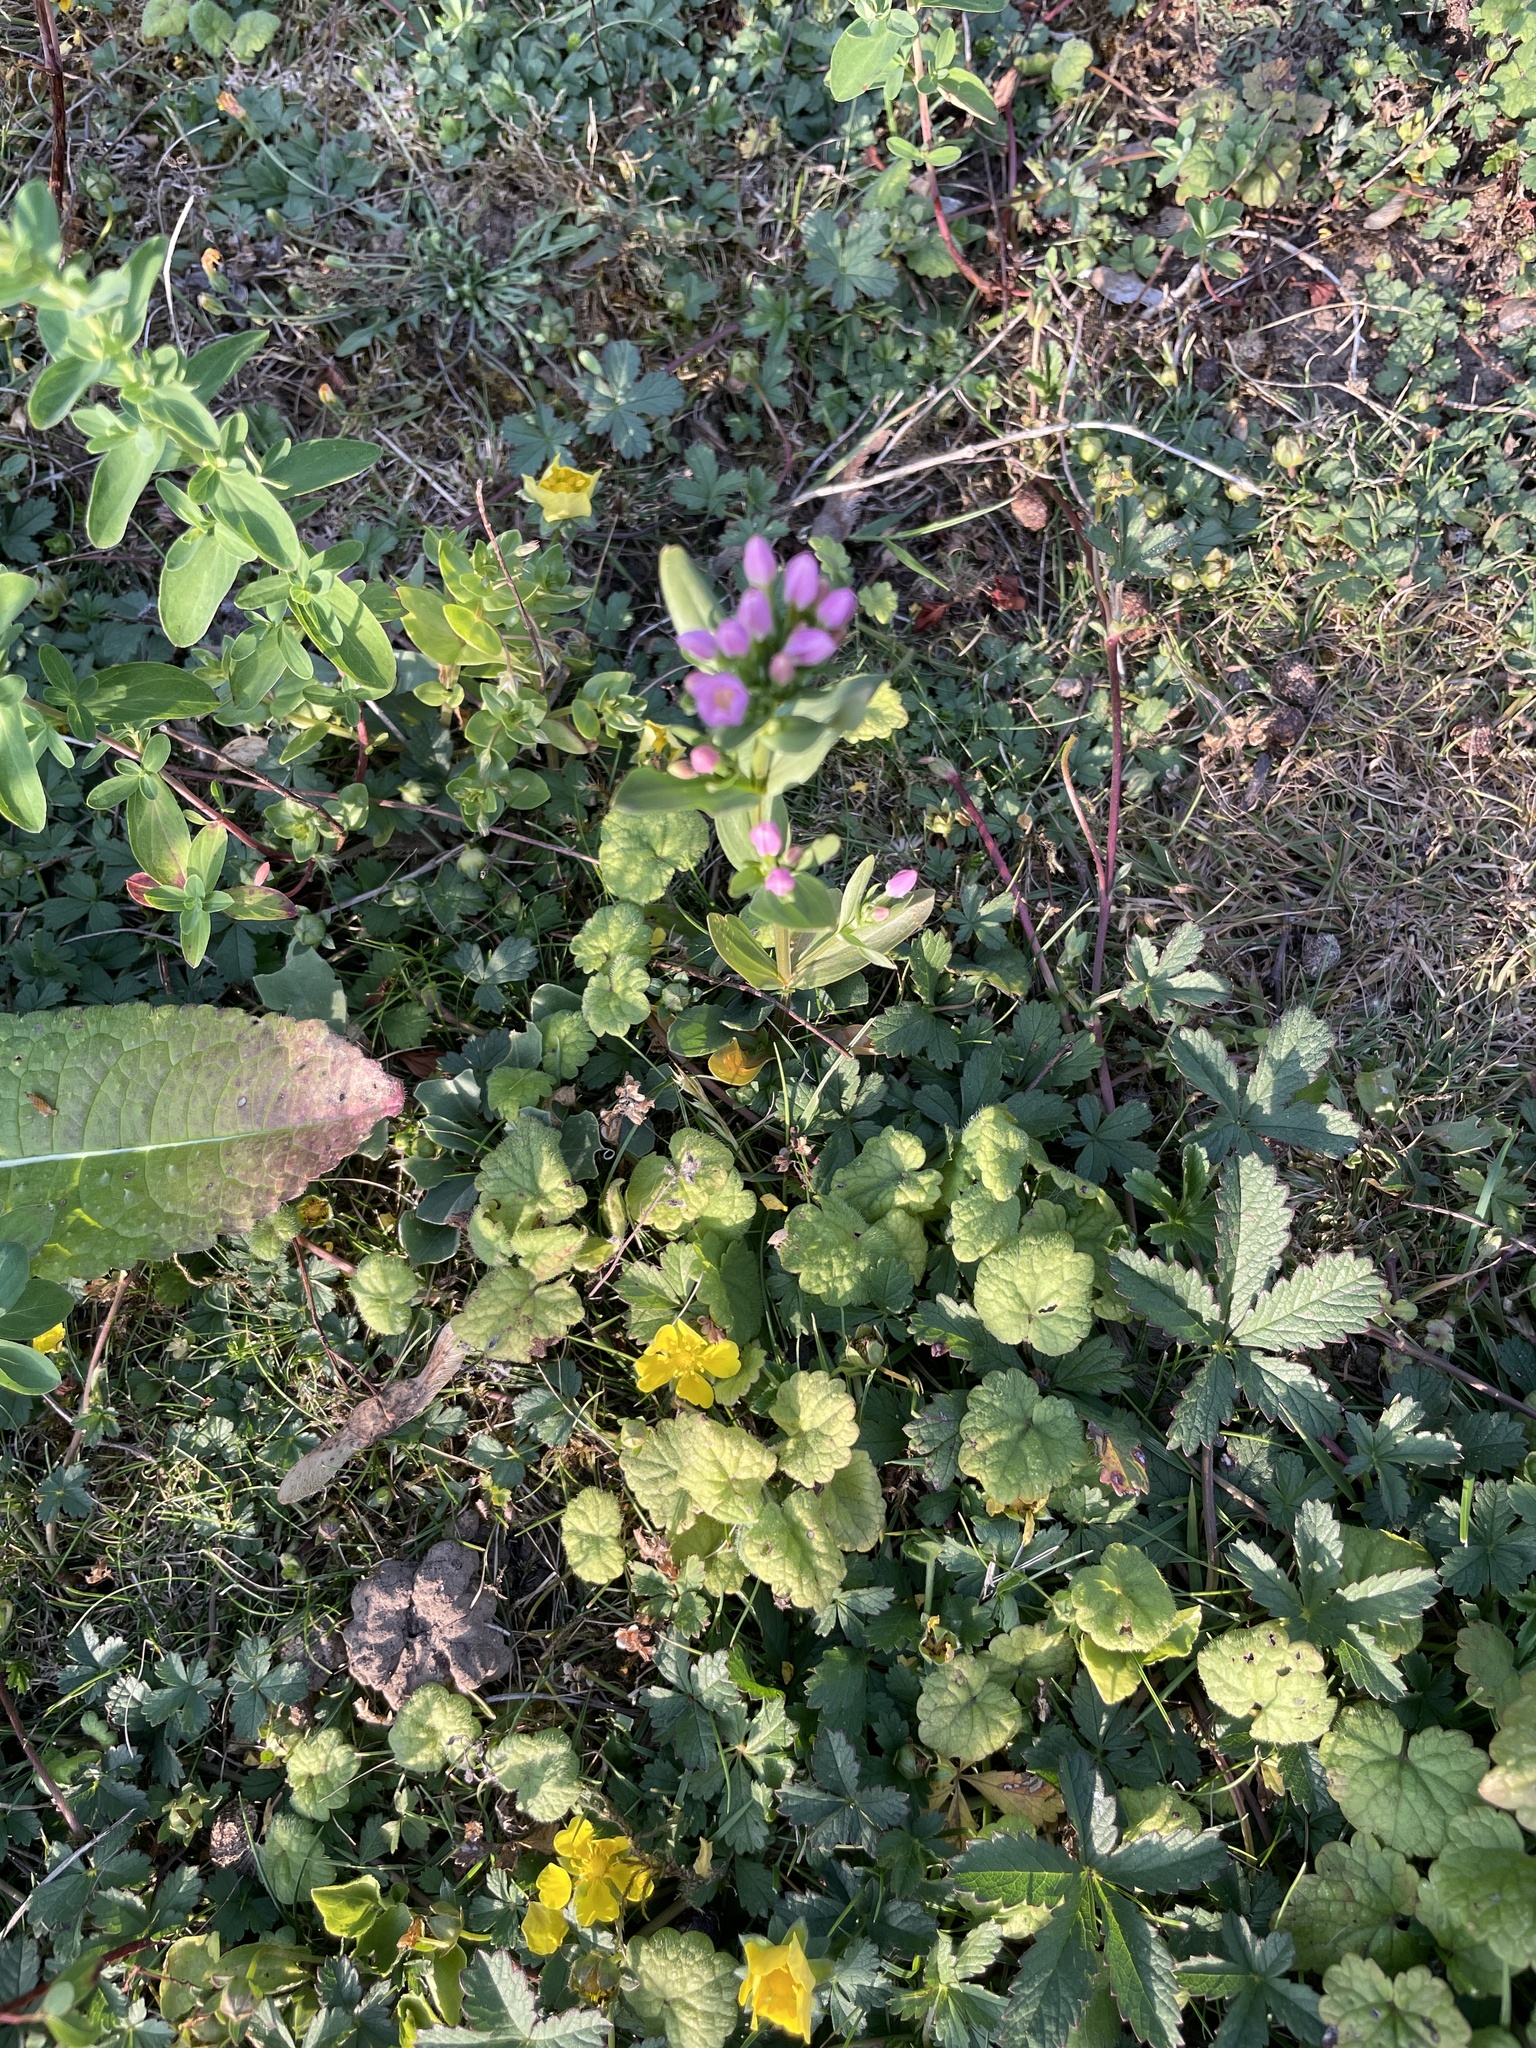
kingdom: Plantae
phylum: Tracheophyta
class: Magnoliopsida
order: Gentianales
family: Gentianaceae
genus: Centaurium
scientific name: Centaurium erythraea
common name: Common centaury
